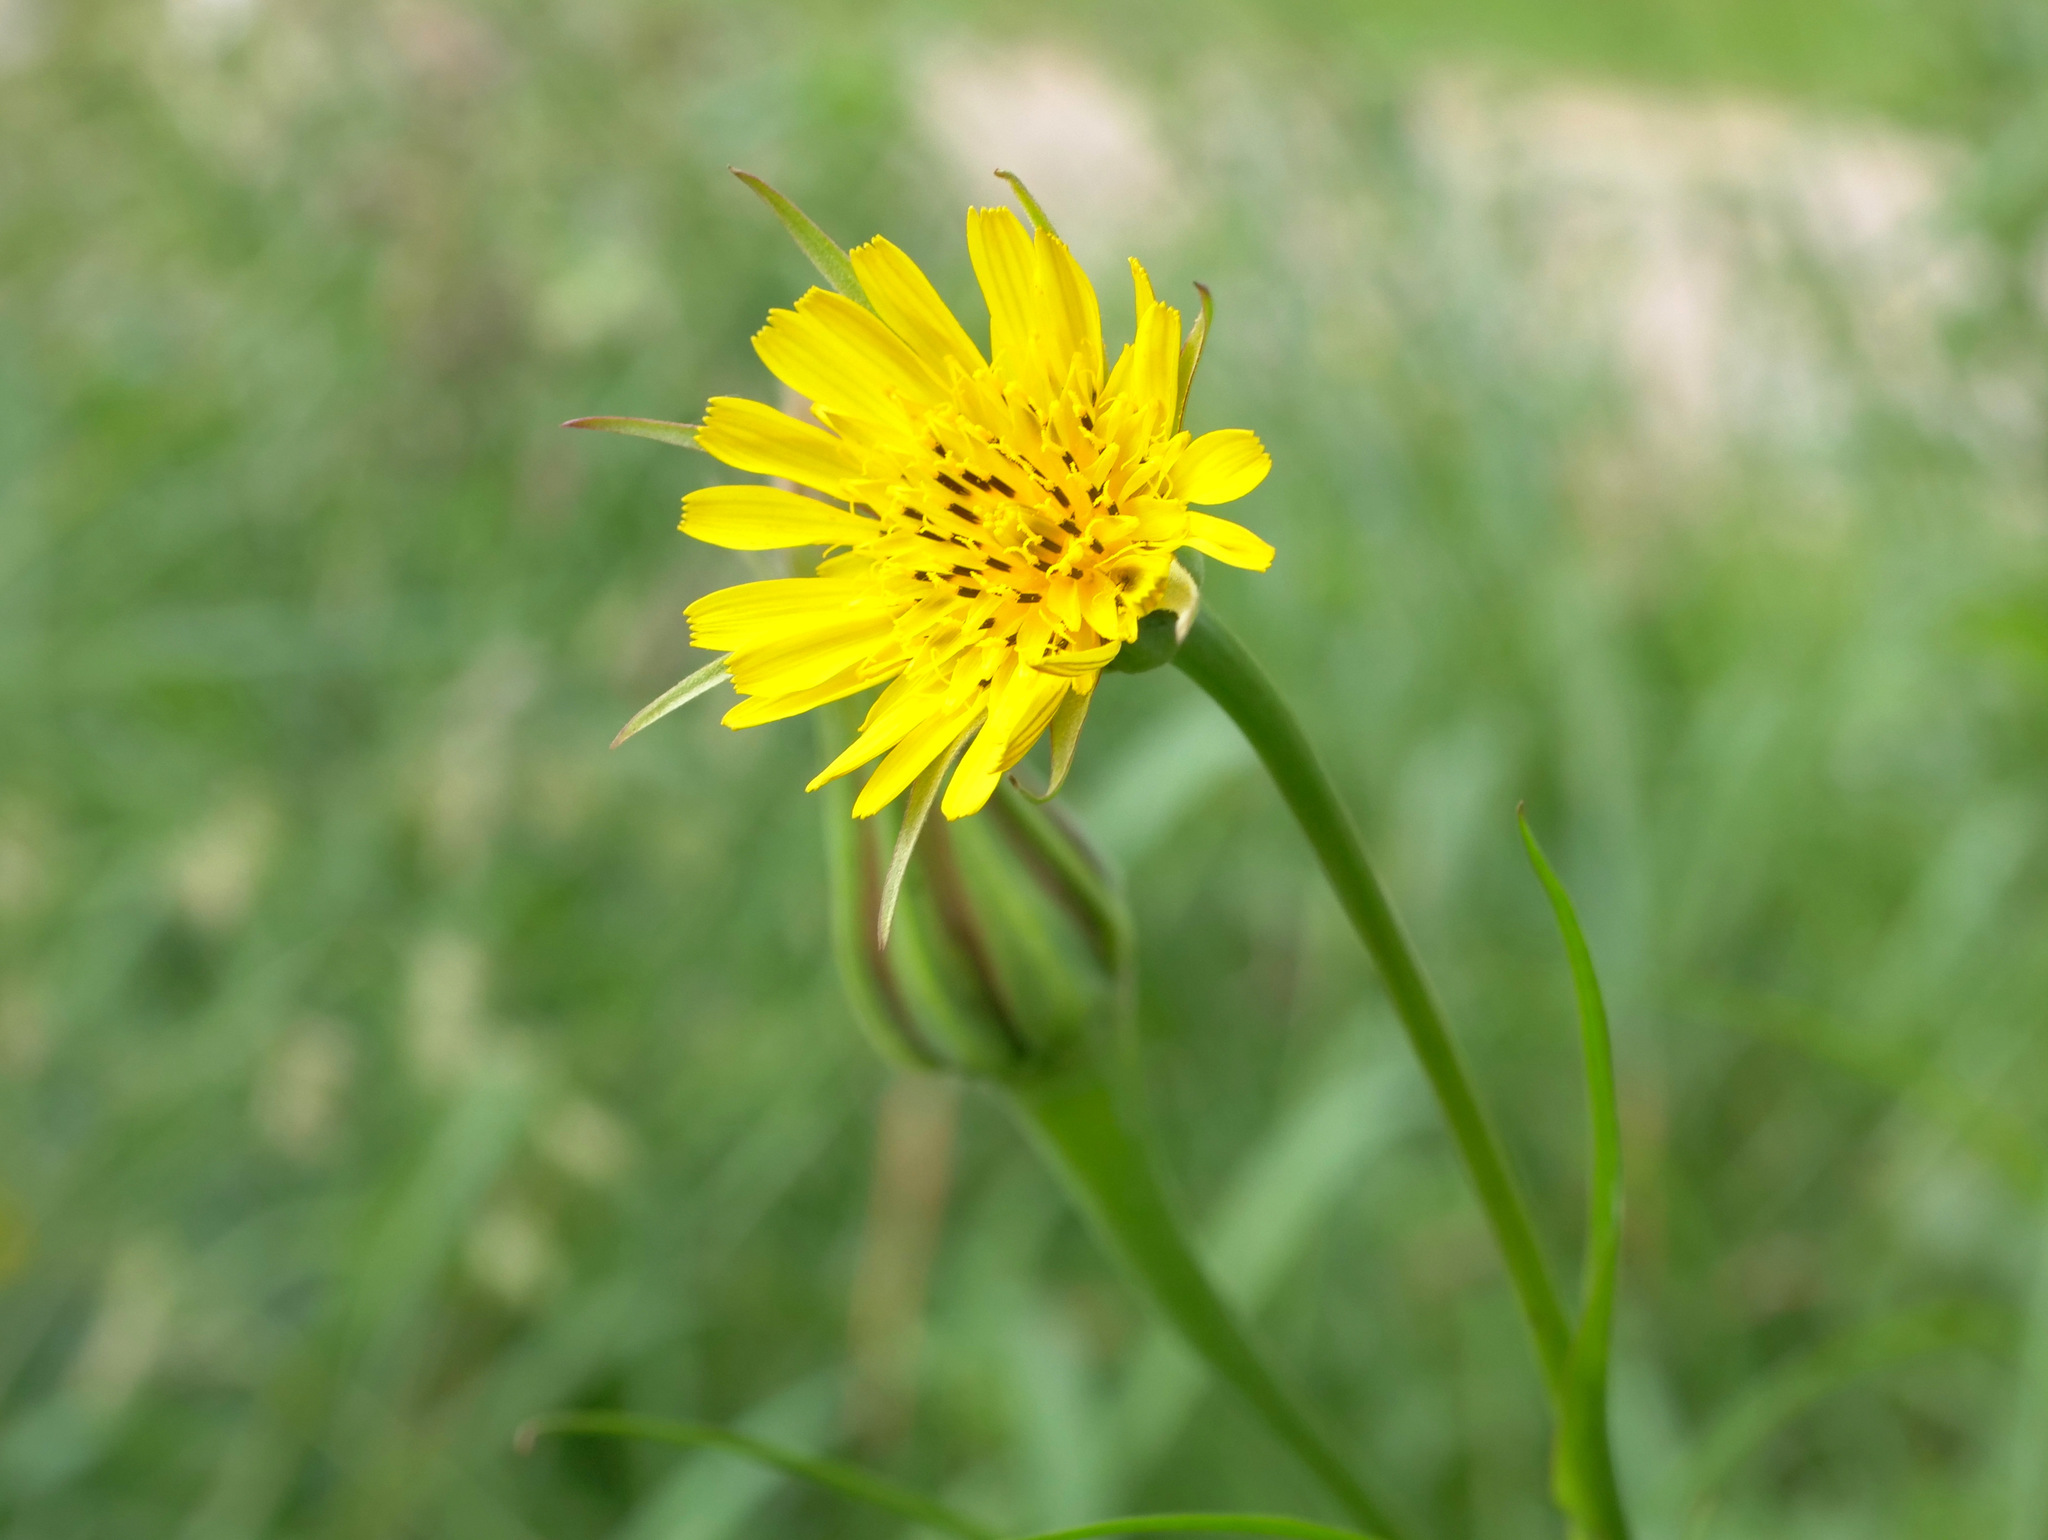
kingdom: Plantae
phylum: Tracheophyta
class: Magnoliopsida
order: Asterales
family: Asteraceae
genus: Tragopogon
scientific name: Tragopogon pratensis
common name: Goat's-beard
